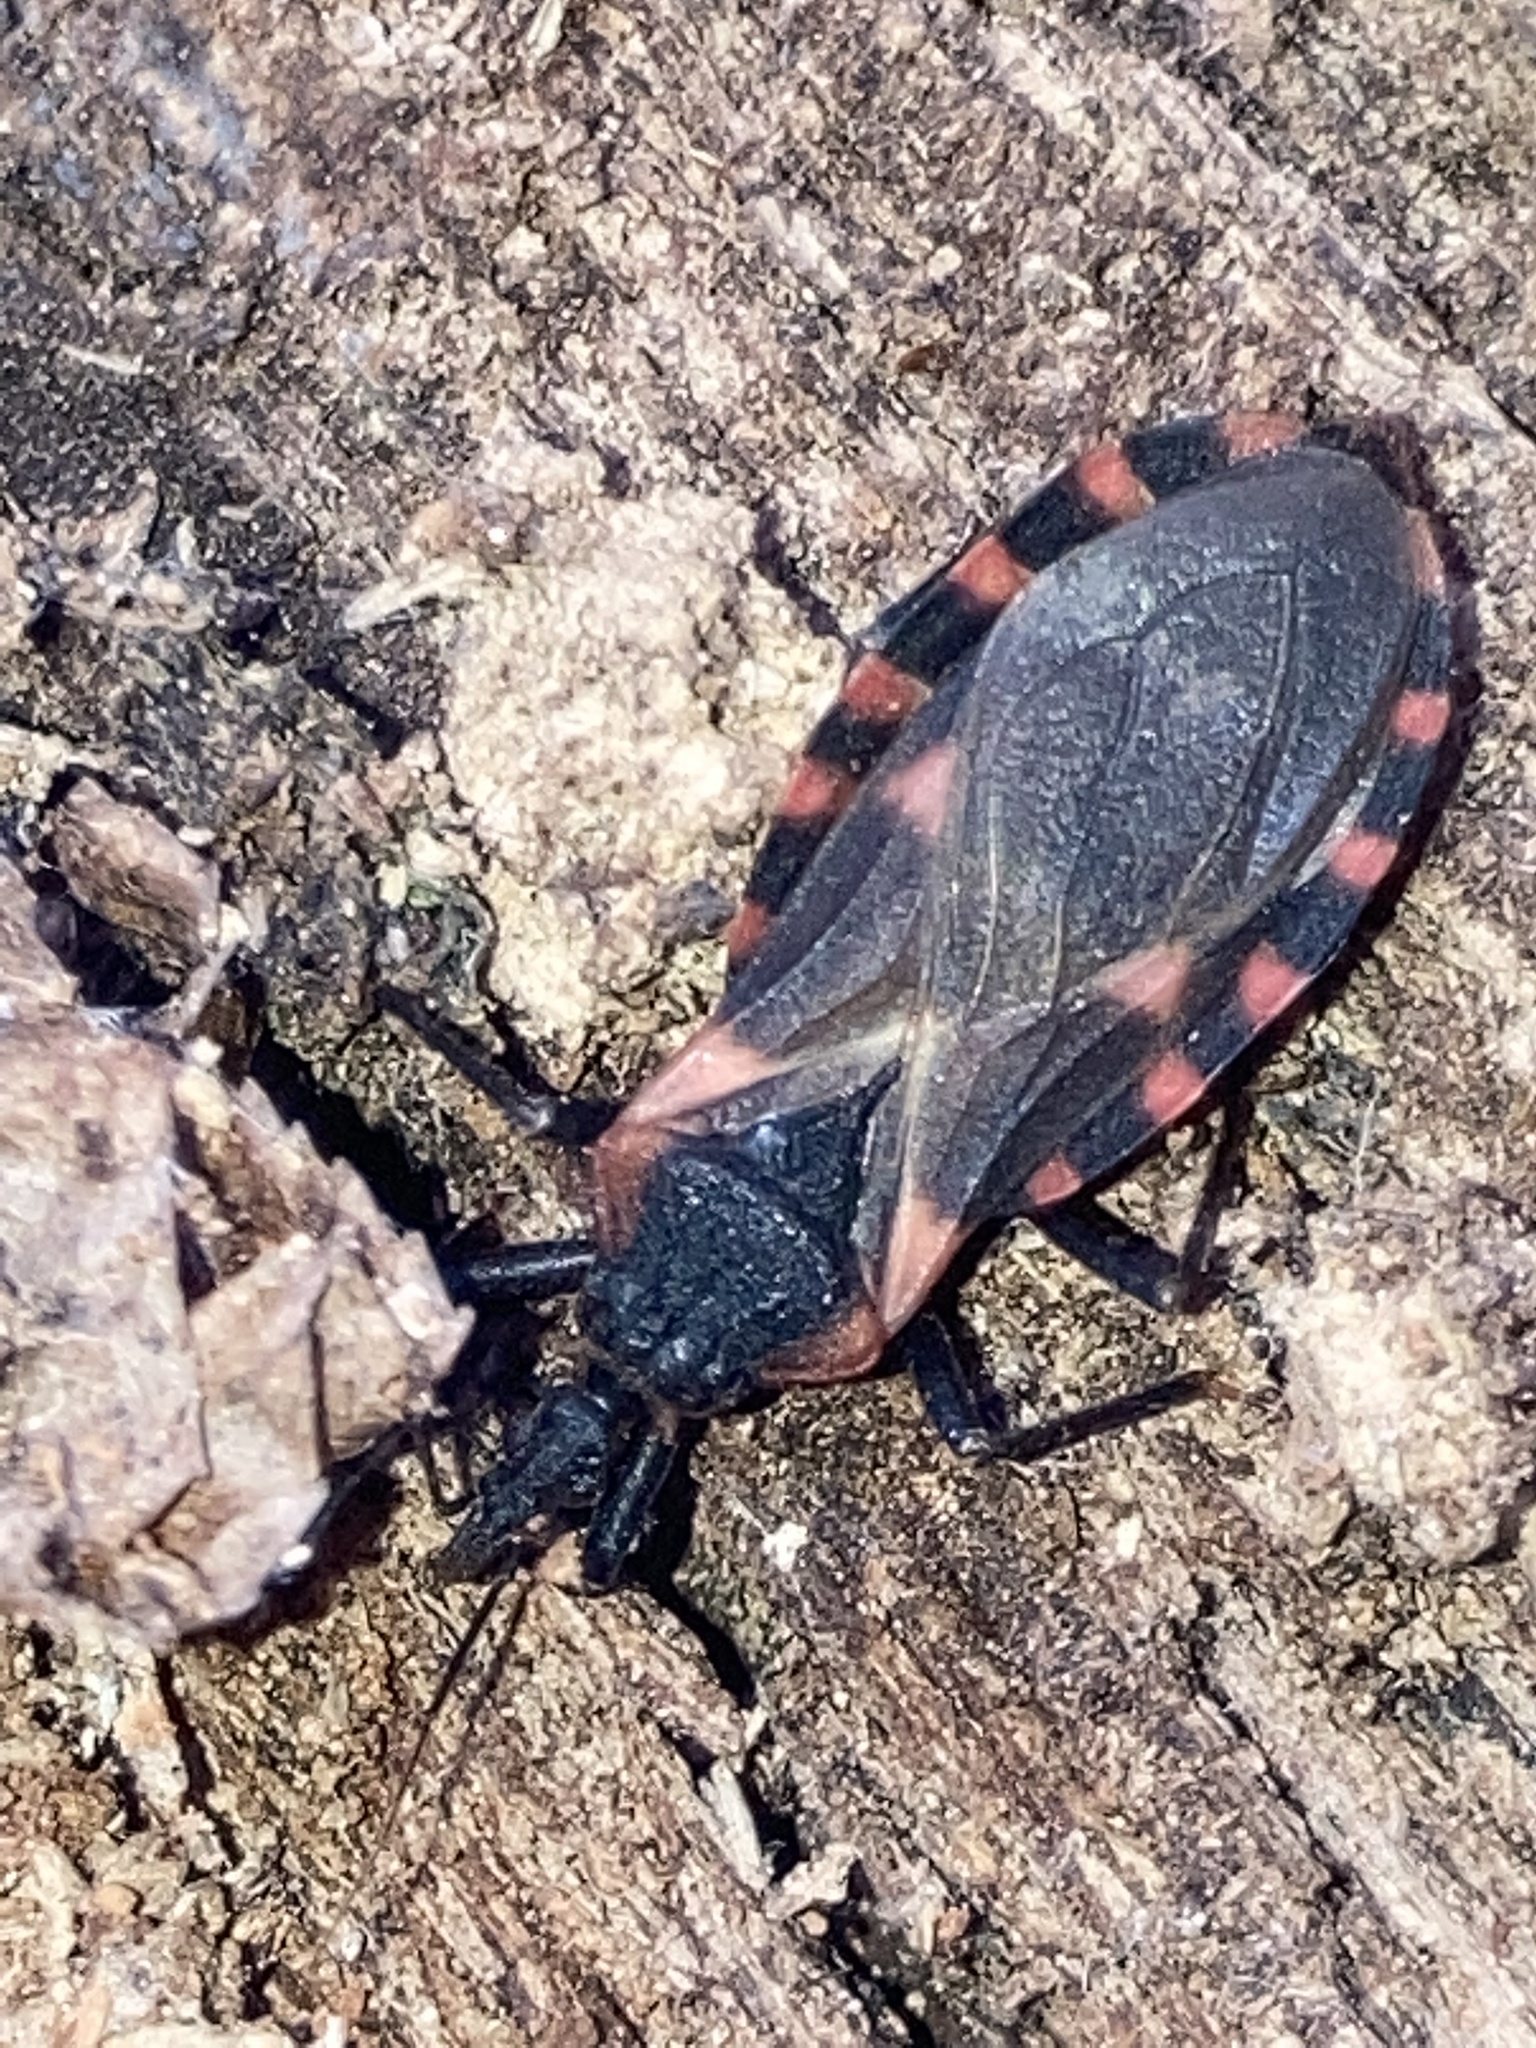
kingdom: Animalia
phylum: Arthropoda
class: Insecta
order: Hemiptera
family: Reduviidae
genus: Triatoma
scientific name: Triatoma sanguisuga
